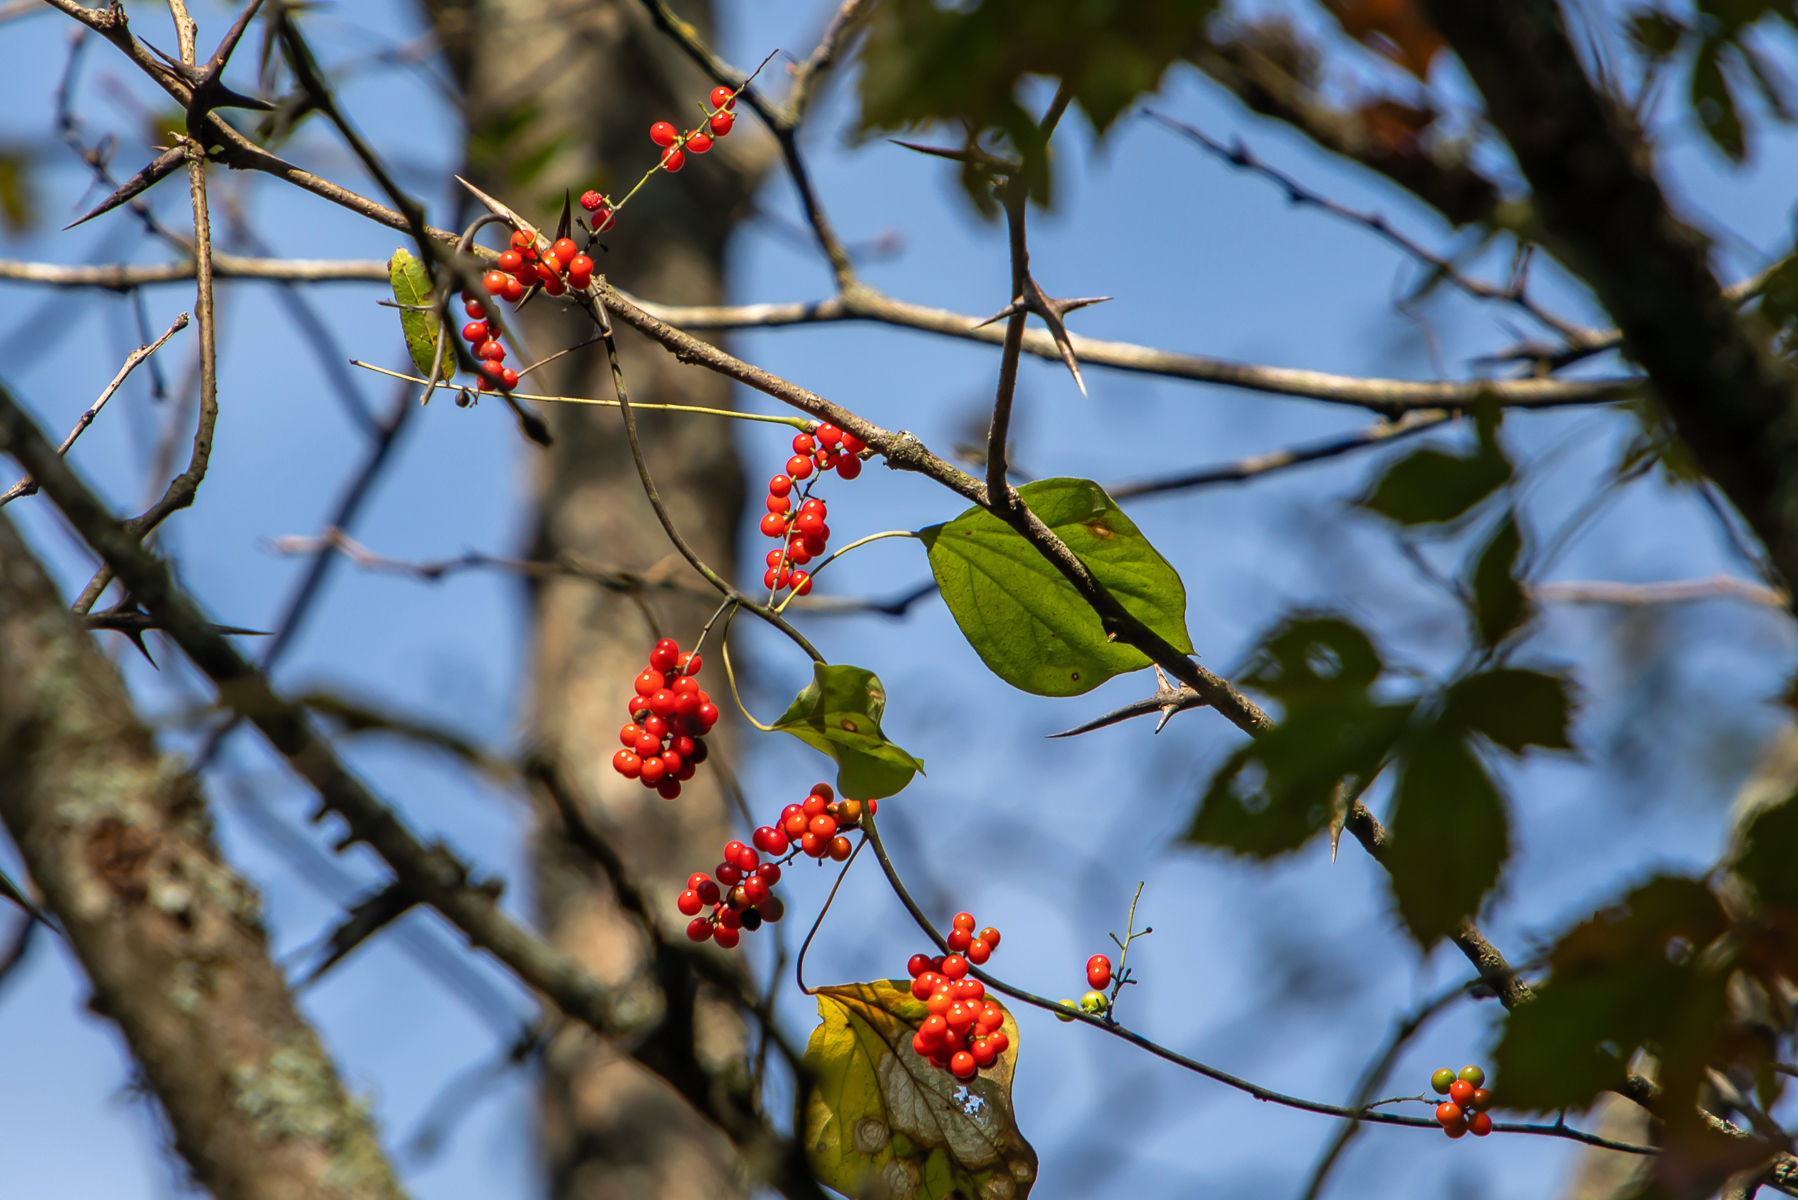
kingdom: Plantae
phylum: Tracheophyta
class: Magnoliopsida
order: Ranunculales
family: Menispermaceae
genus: Cocculus
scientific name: Cocculus carolinus
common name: Carolina moonseed
